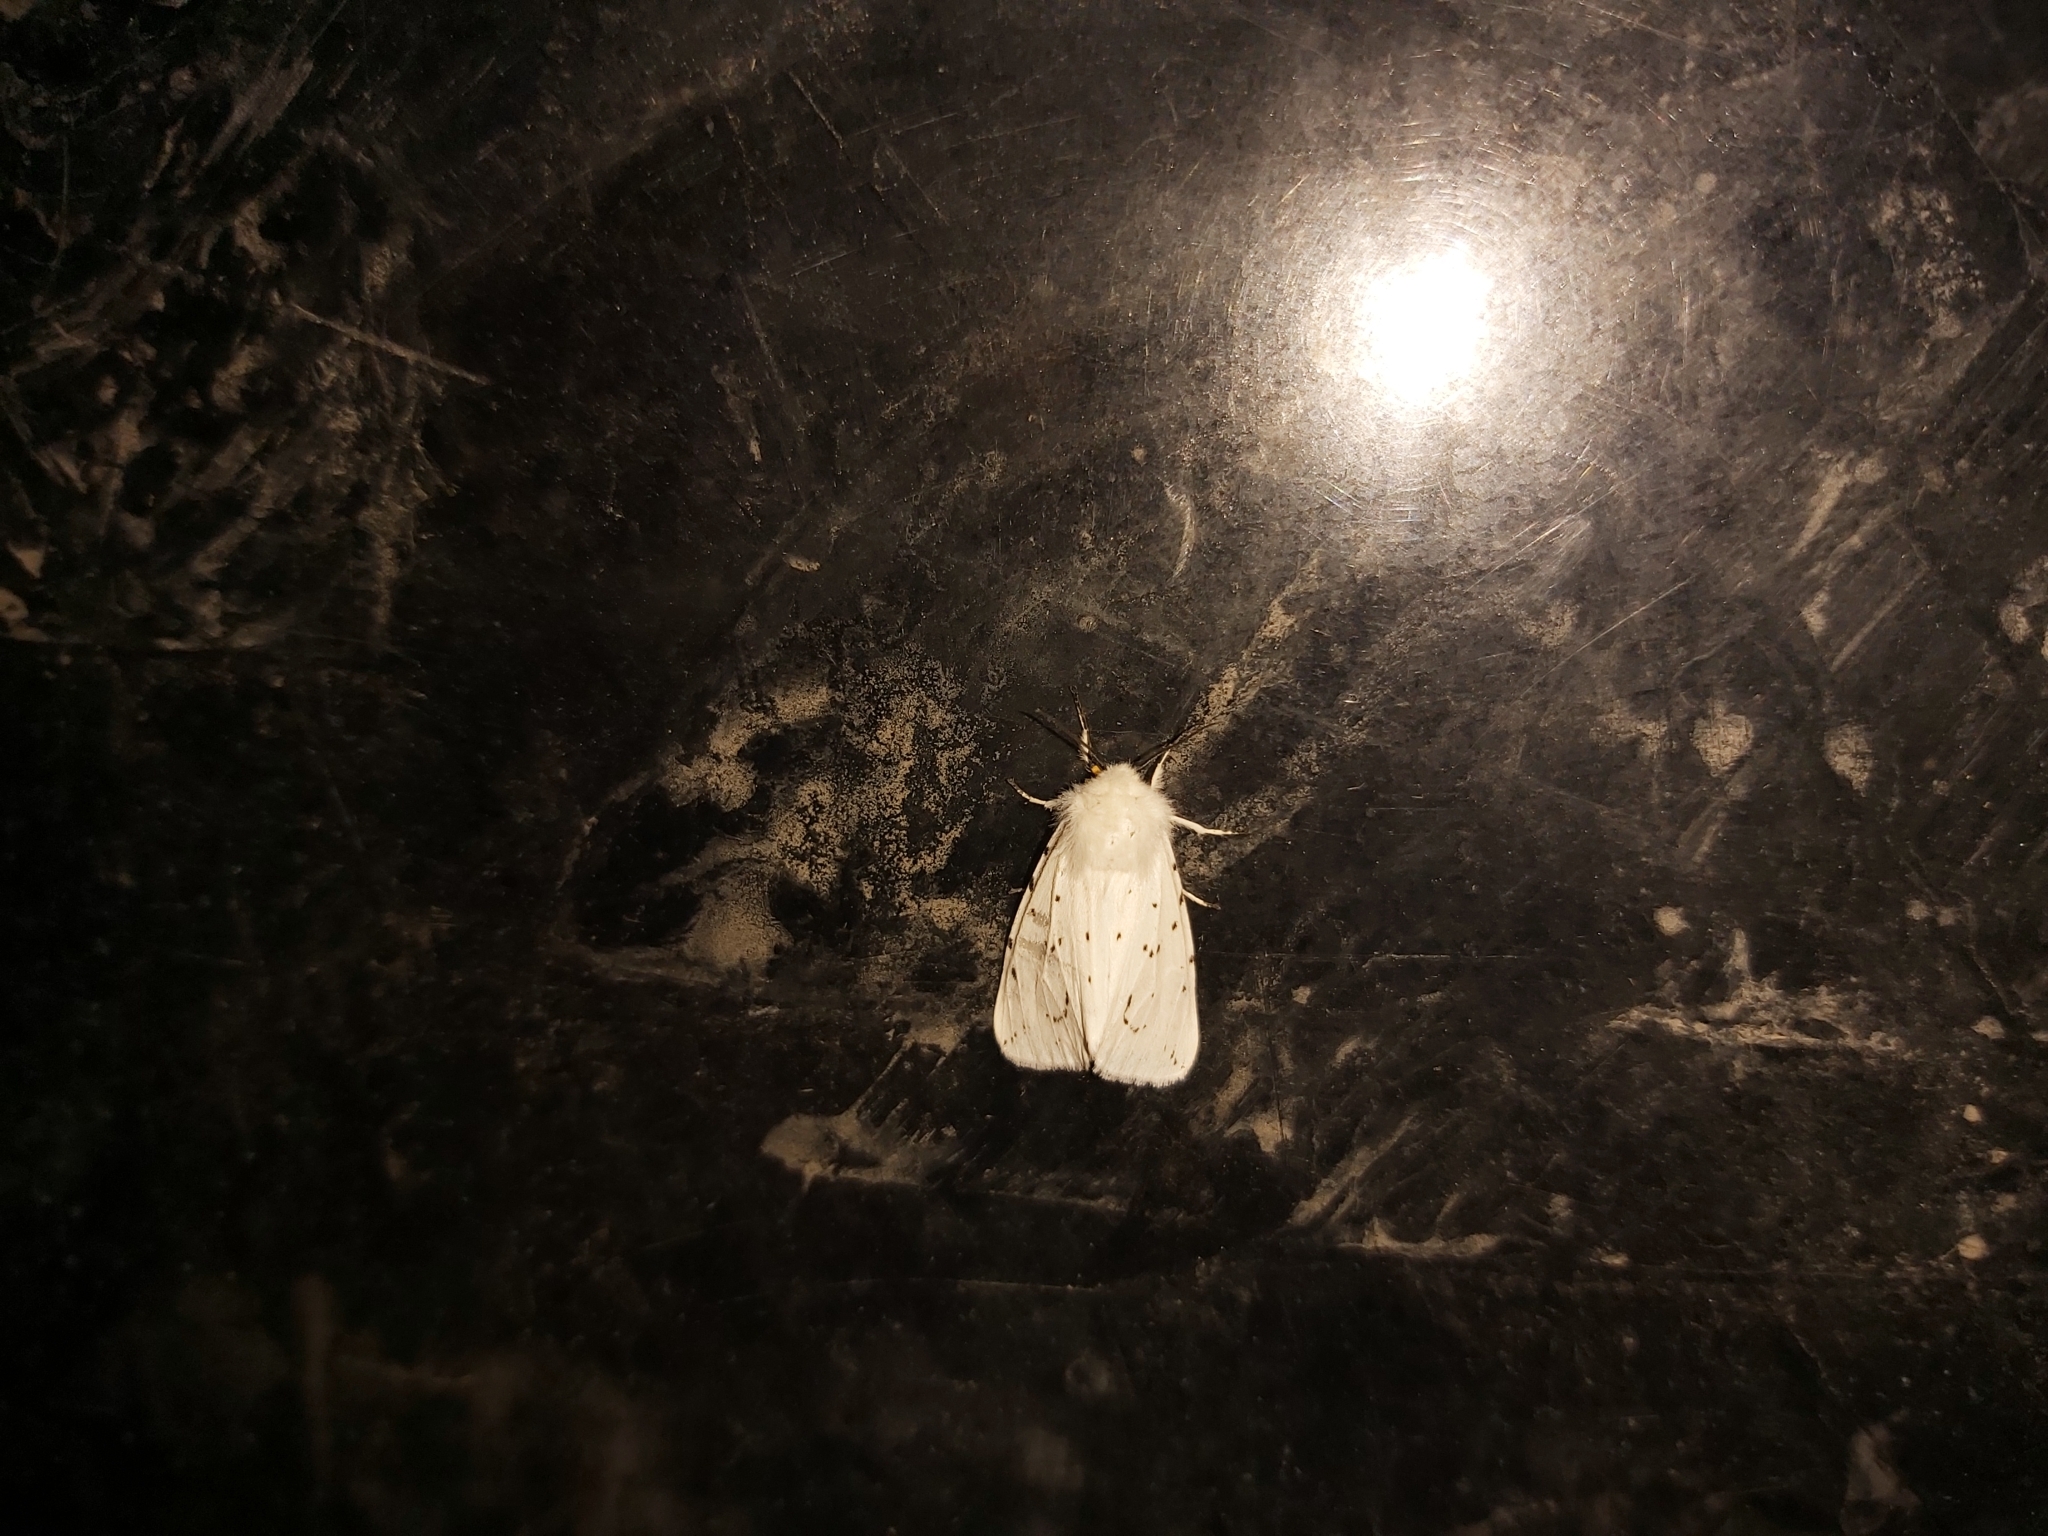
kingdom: Animalia
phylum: Arthropoda
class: Insecta
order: Lepidoptera
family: Erebidae
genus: Spilosoma
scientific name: Spilosoma lubricipeda
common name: White ermine
